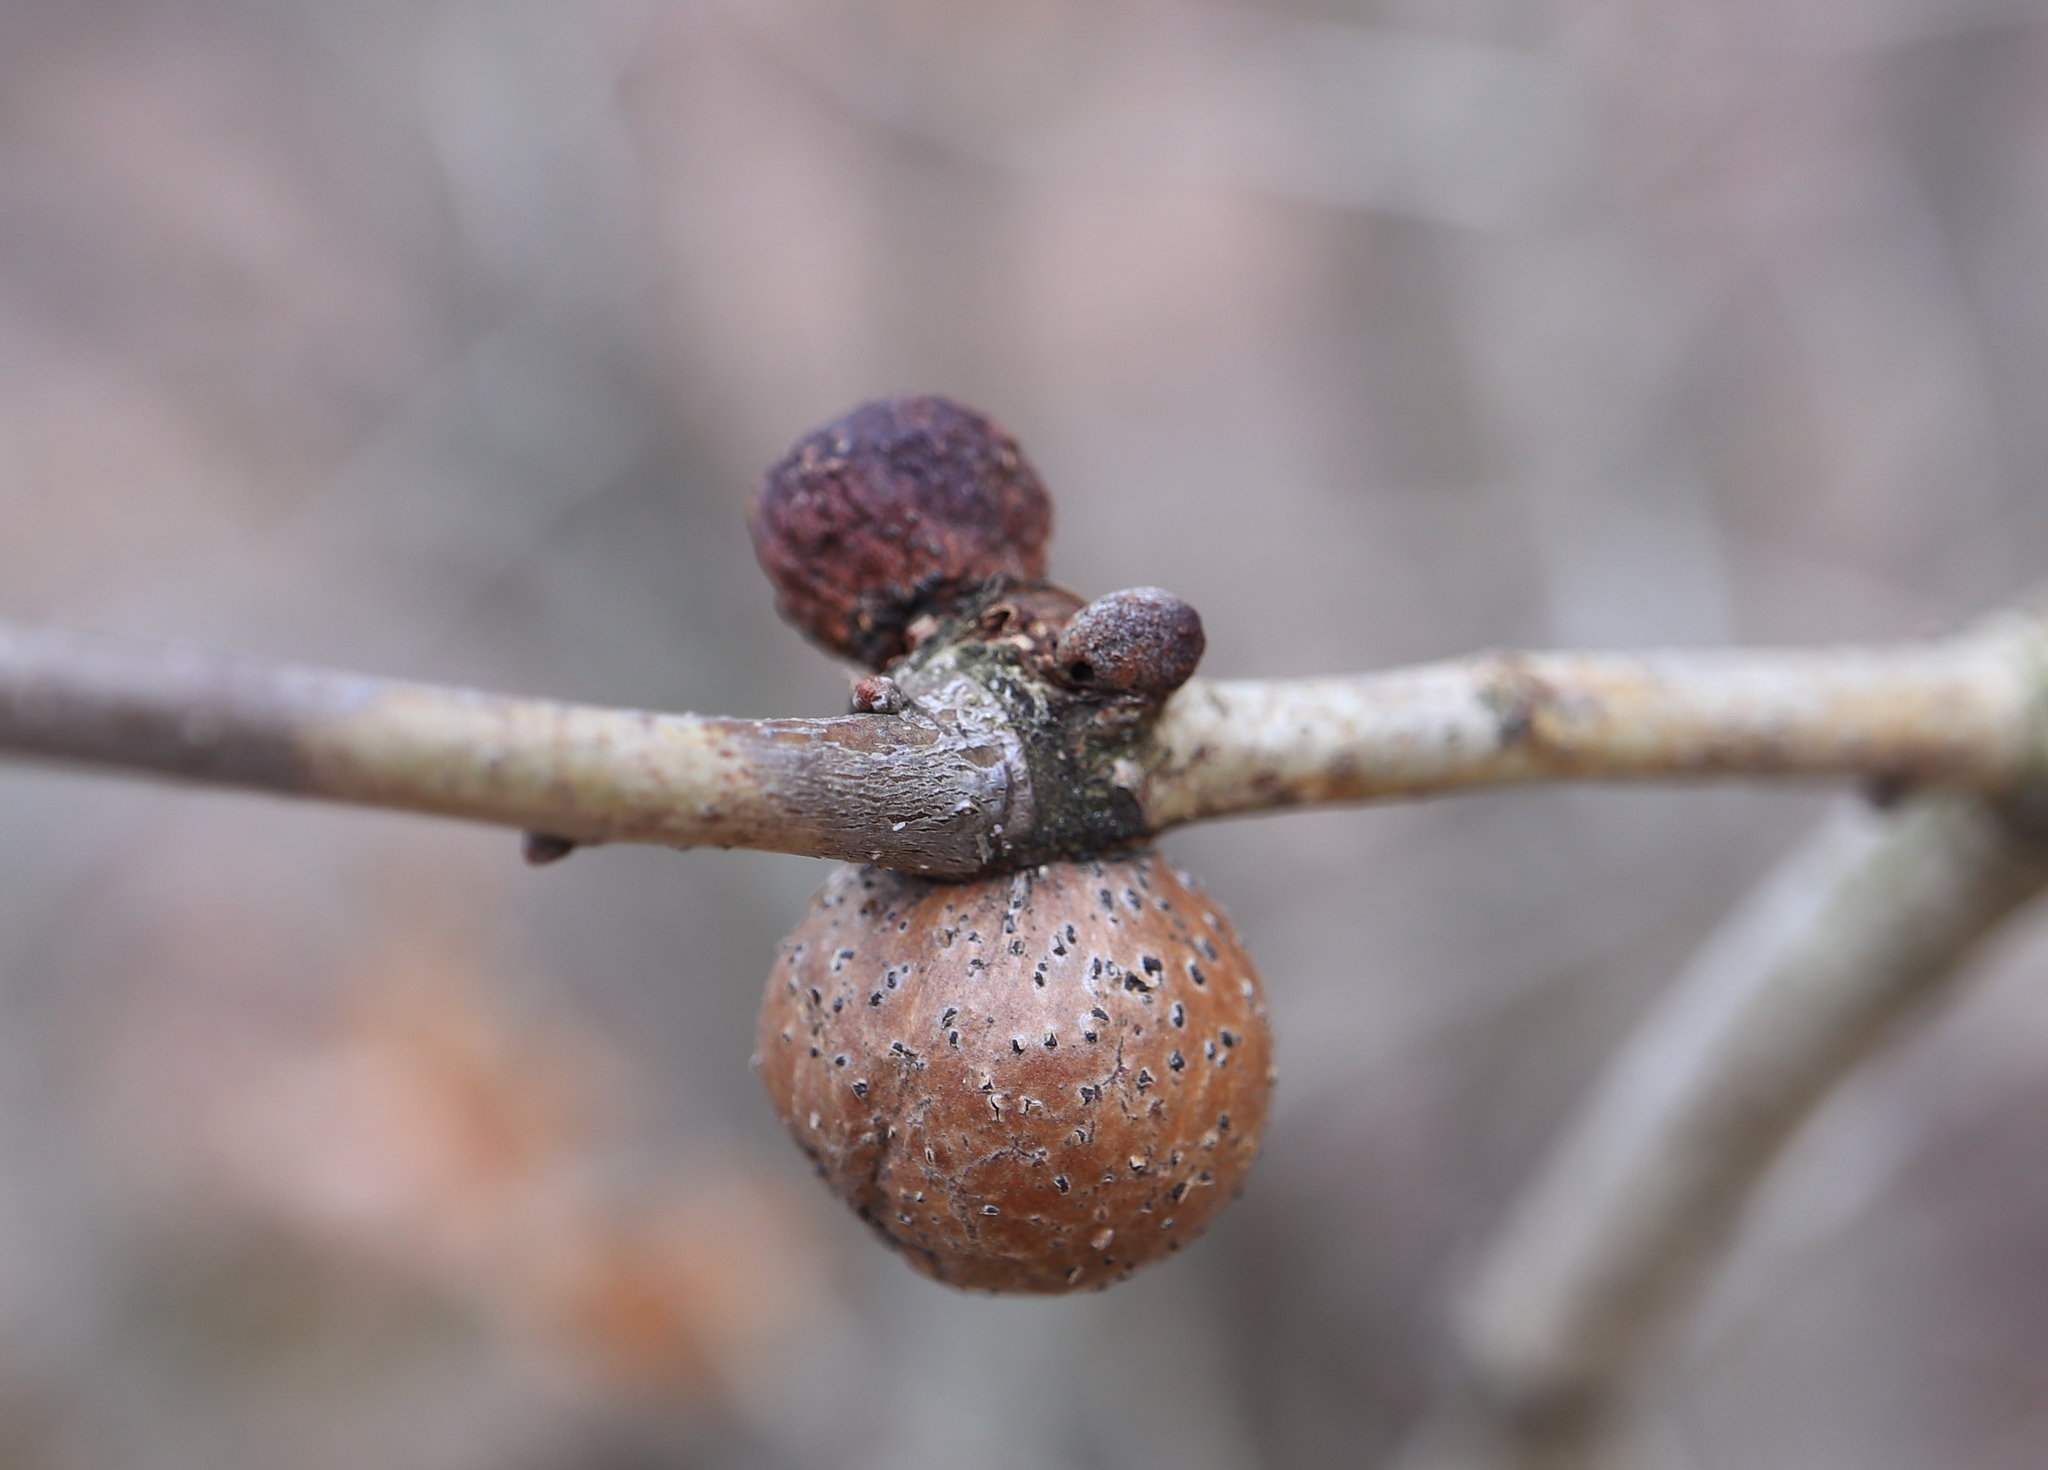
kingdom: Animalia
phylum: Arthropoda
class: Insecta
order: Hymenoptera
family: Cynipidae
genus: Disholcaspis
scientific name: Disholcaspis quercusglobulus
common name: Round bullet gall wasp
